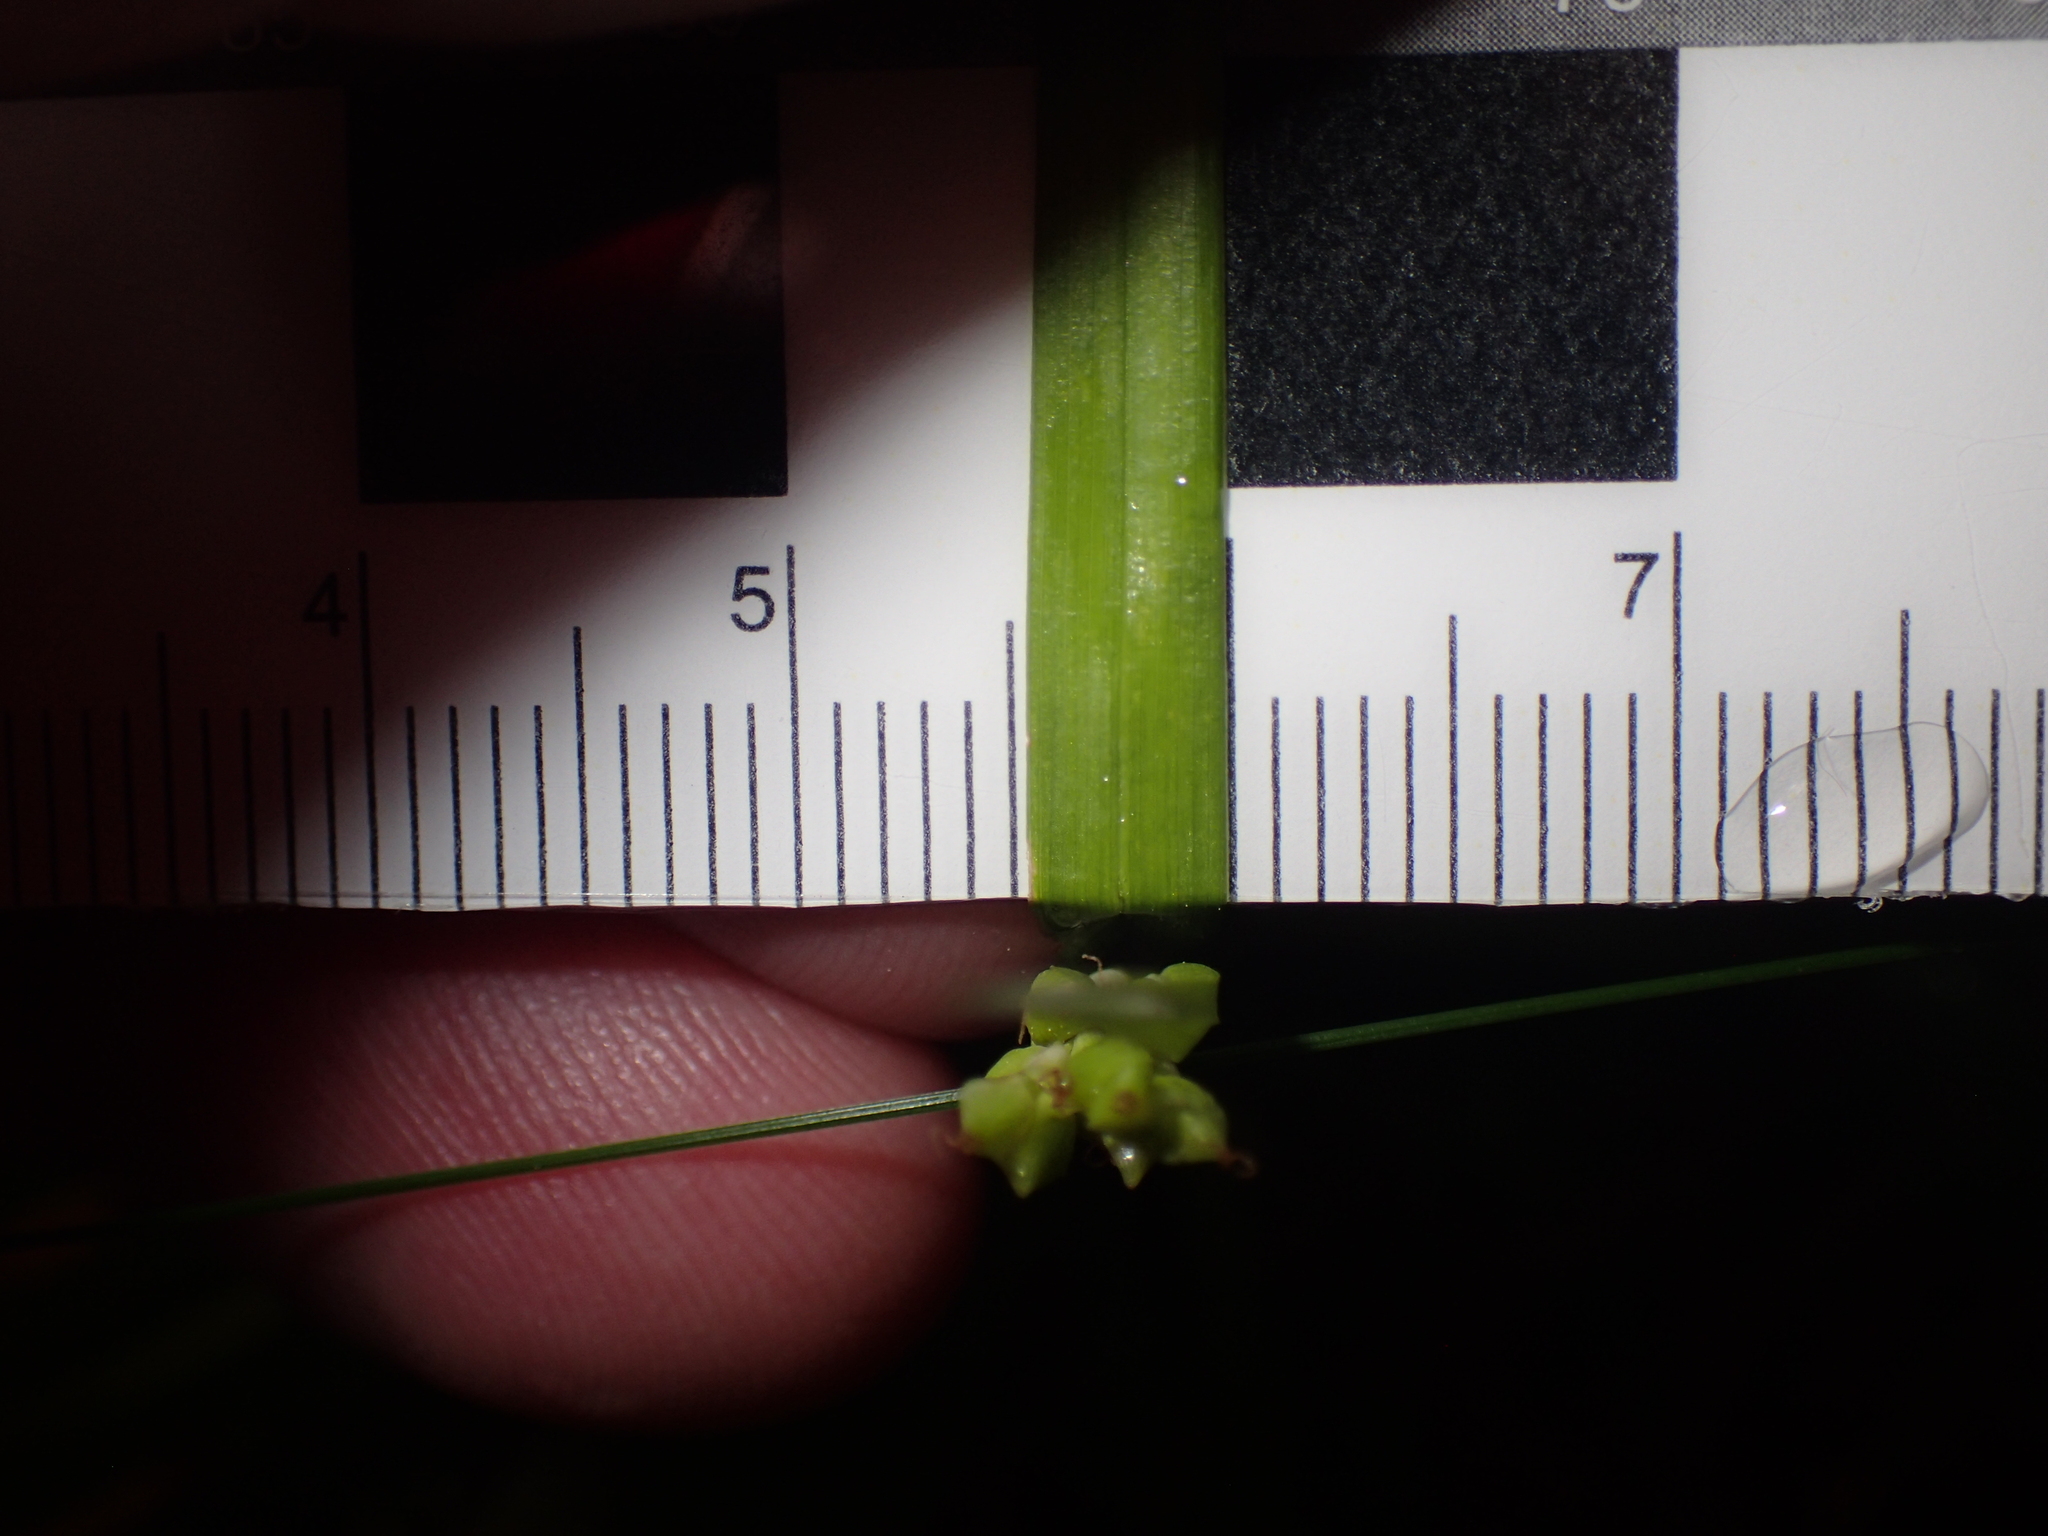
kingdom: Plantae
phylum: Tracheophyta
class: Liliopsida
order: Poales
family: Cyperaceae
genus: Carex
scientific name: Carex abscondita
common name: Thicket sedge
